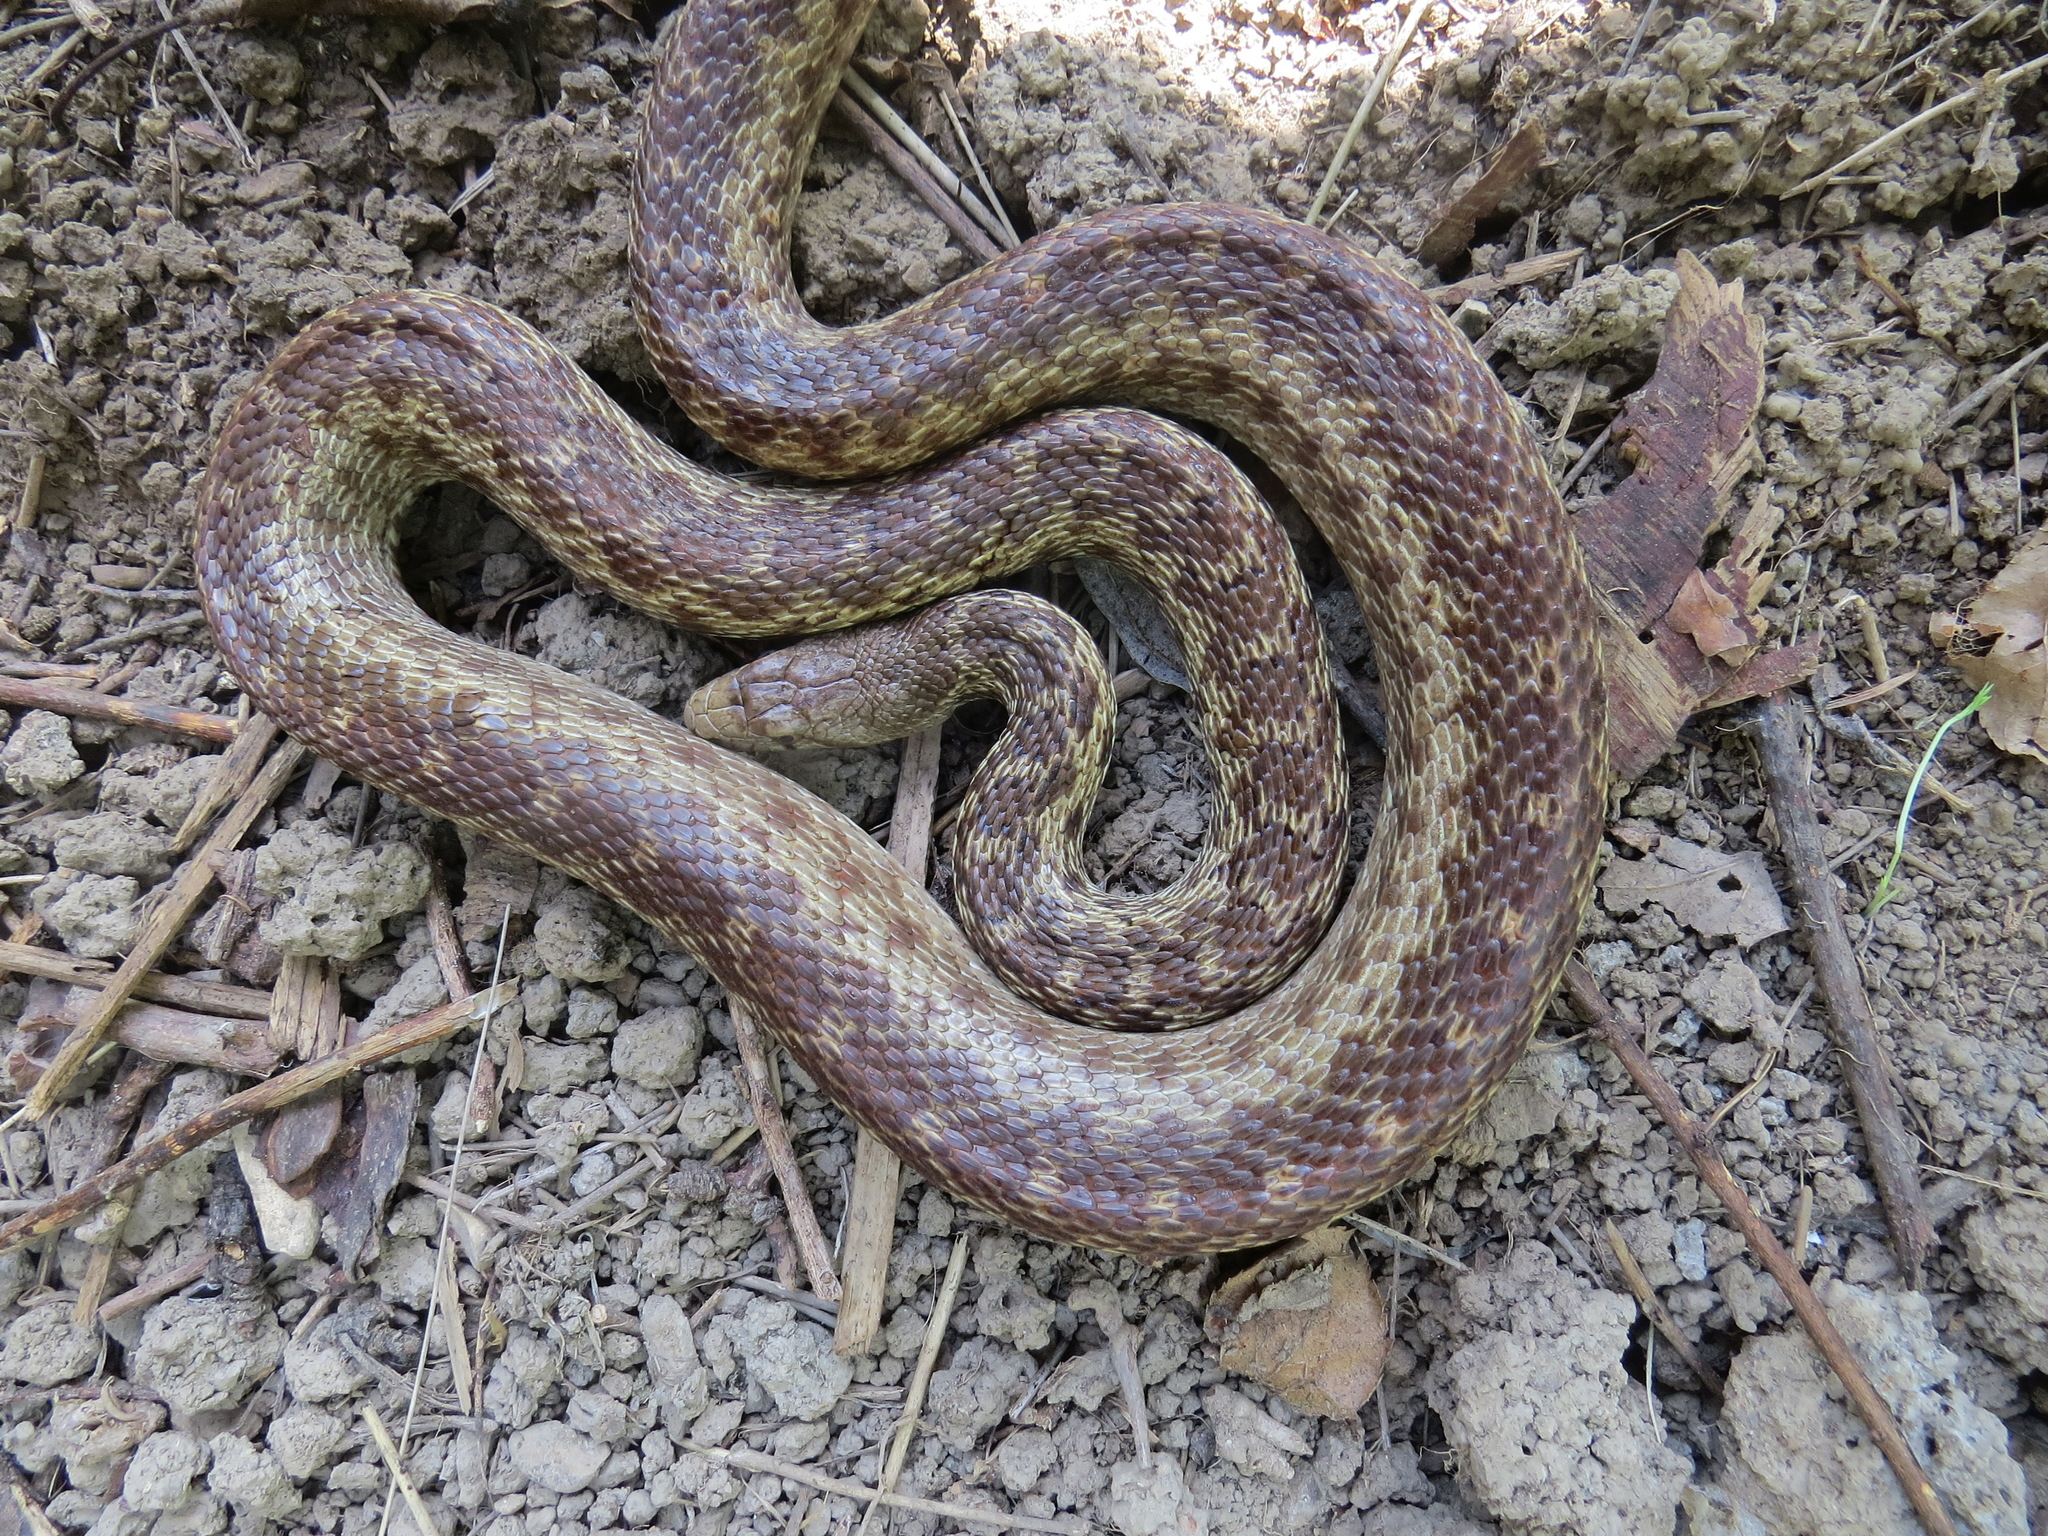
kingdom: Animalia
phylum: Chordata
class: Squamata
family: Colubridae
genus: Pituophis
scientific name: Pituophis catenifer
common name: Gopher snake
